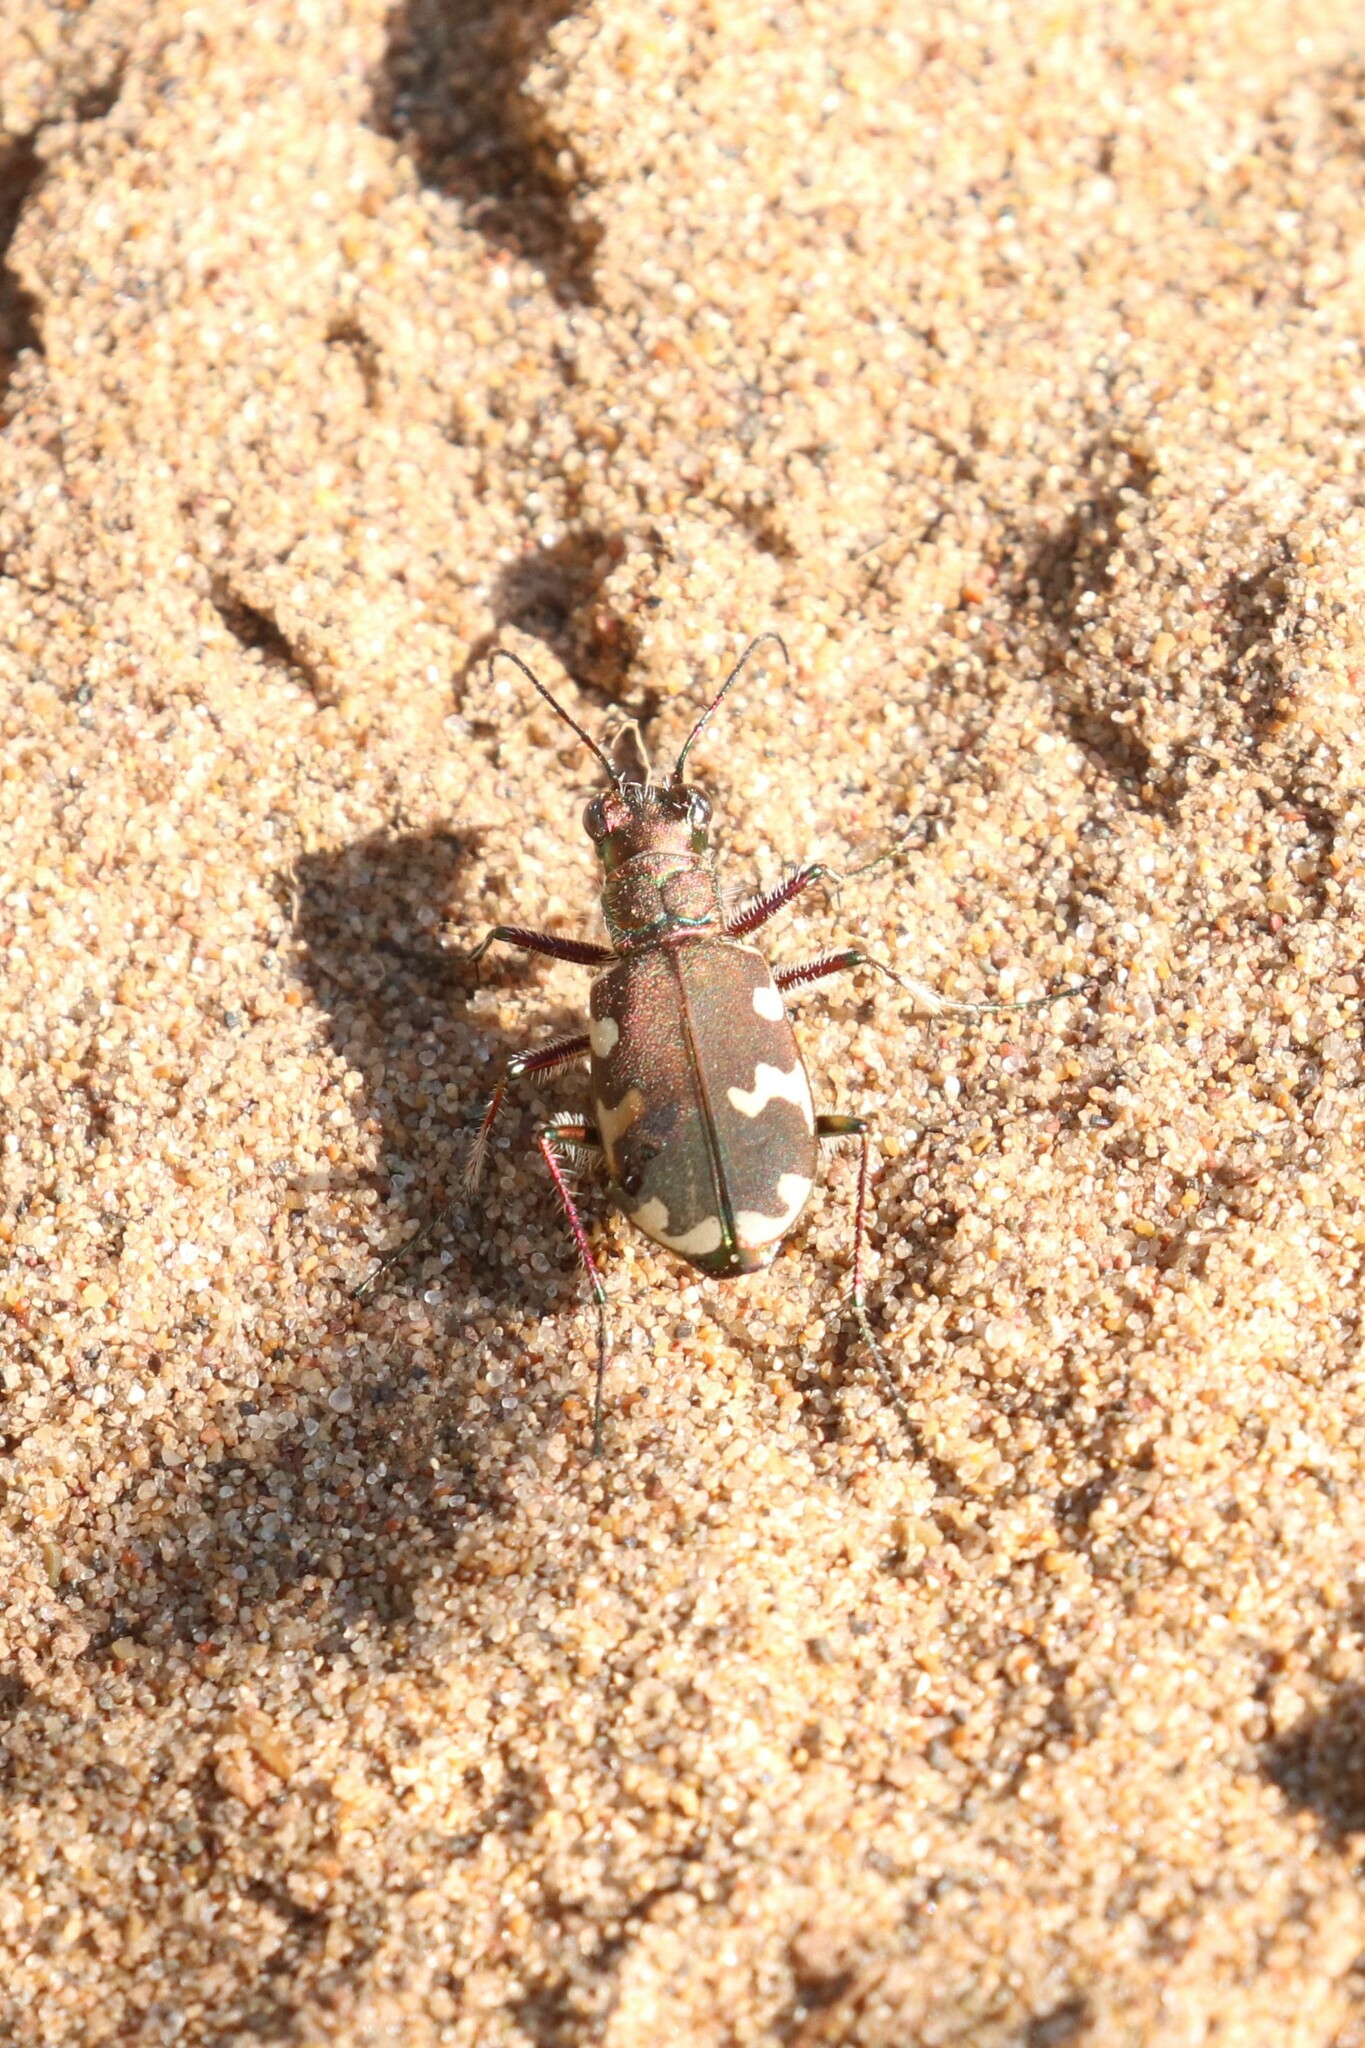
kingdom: Animalia
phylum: Arthropoda
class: Insecta
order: Coleoptera
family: Carabidae
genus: Cicindela
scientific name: Cicindela hybrida
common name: Northern dune tiger beetle
